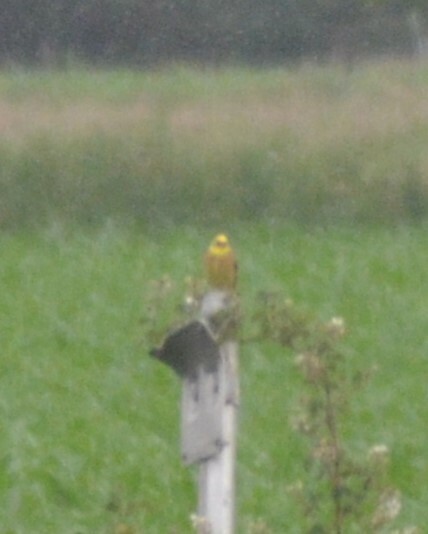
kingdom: Animalia
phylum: Chordata
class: Aves
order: Passeriformes
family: Emberizidae
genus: Emberiza
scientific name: Emberiza citrinella
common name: Yellowhammer
